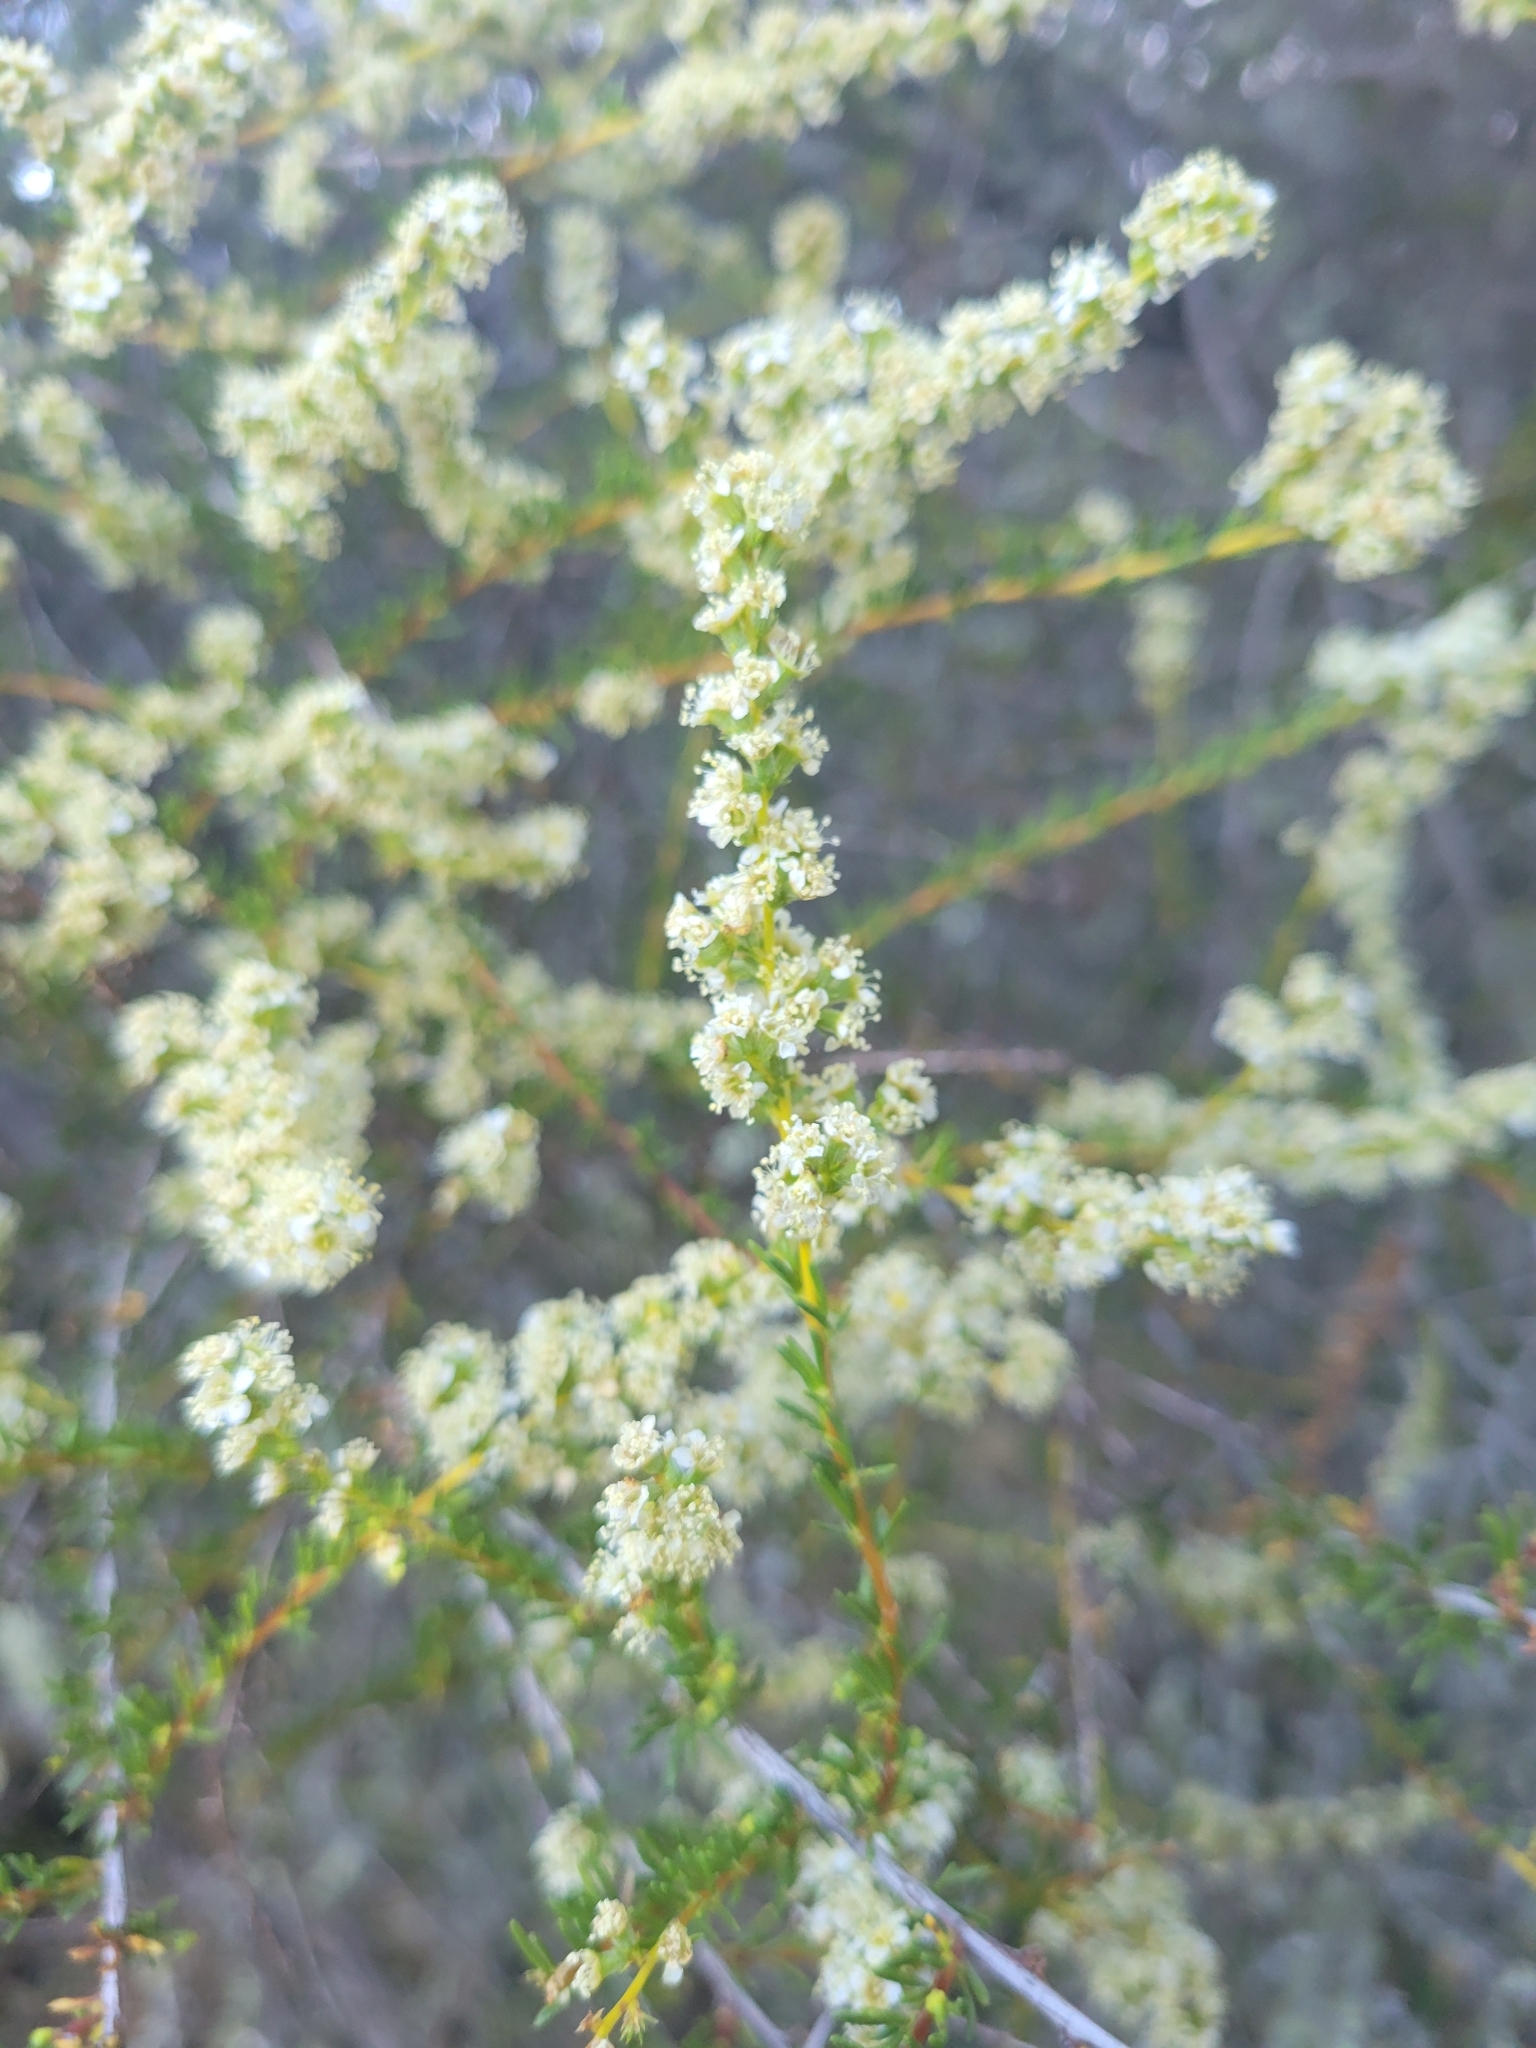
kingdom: Plantae
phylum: Tracheophyta
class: Magnoliopsida
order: Rosales
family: Rosaceae
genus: Adenostoma
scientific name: Adenostoma fasciculatum
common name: Chamise
